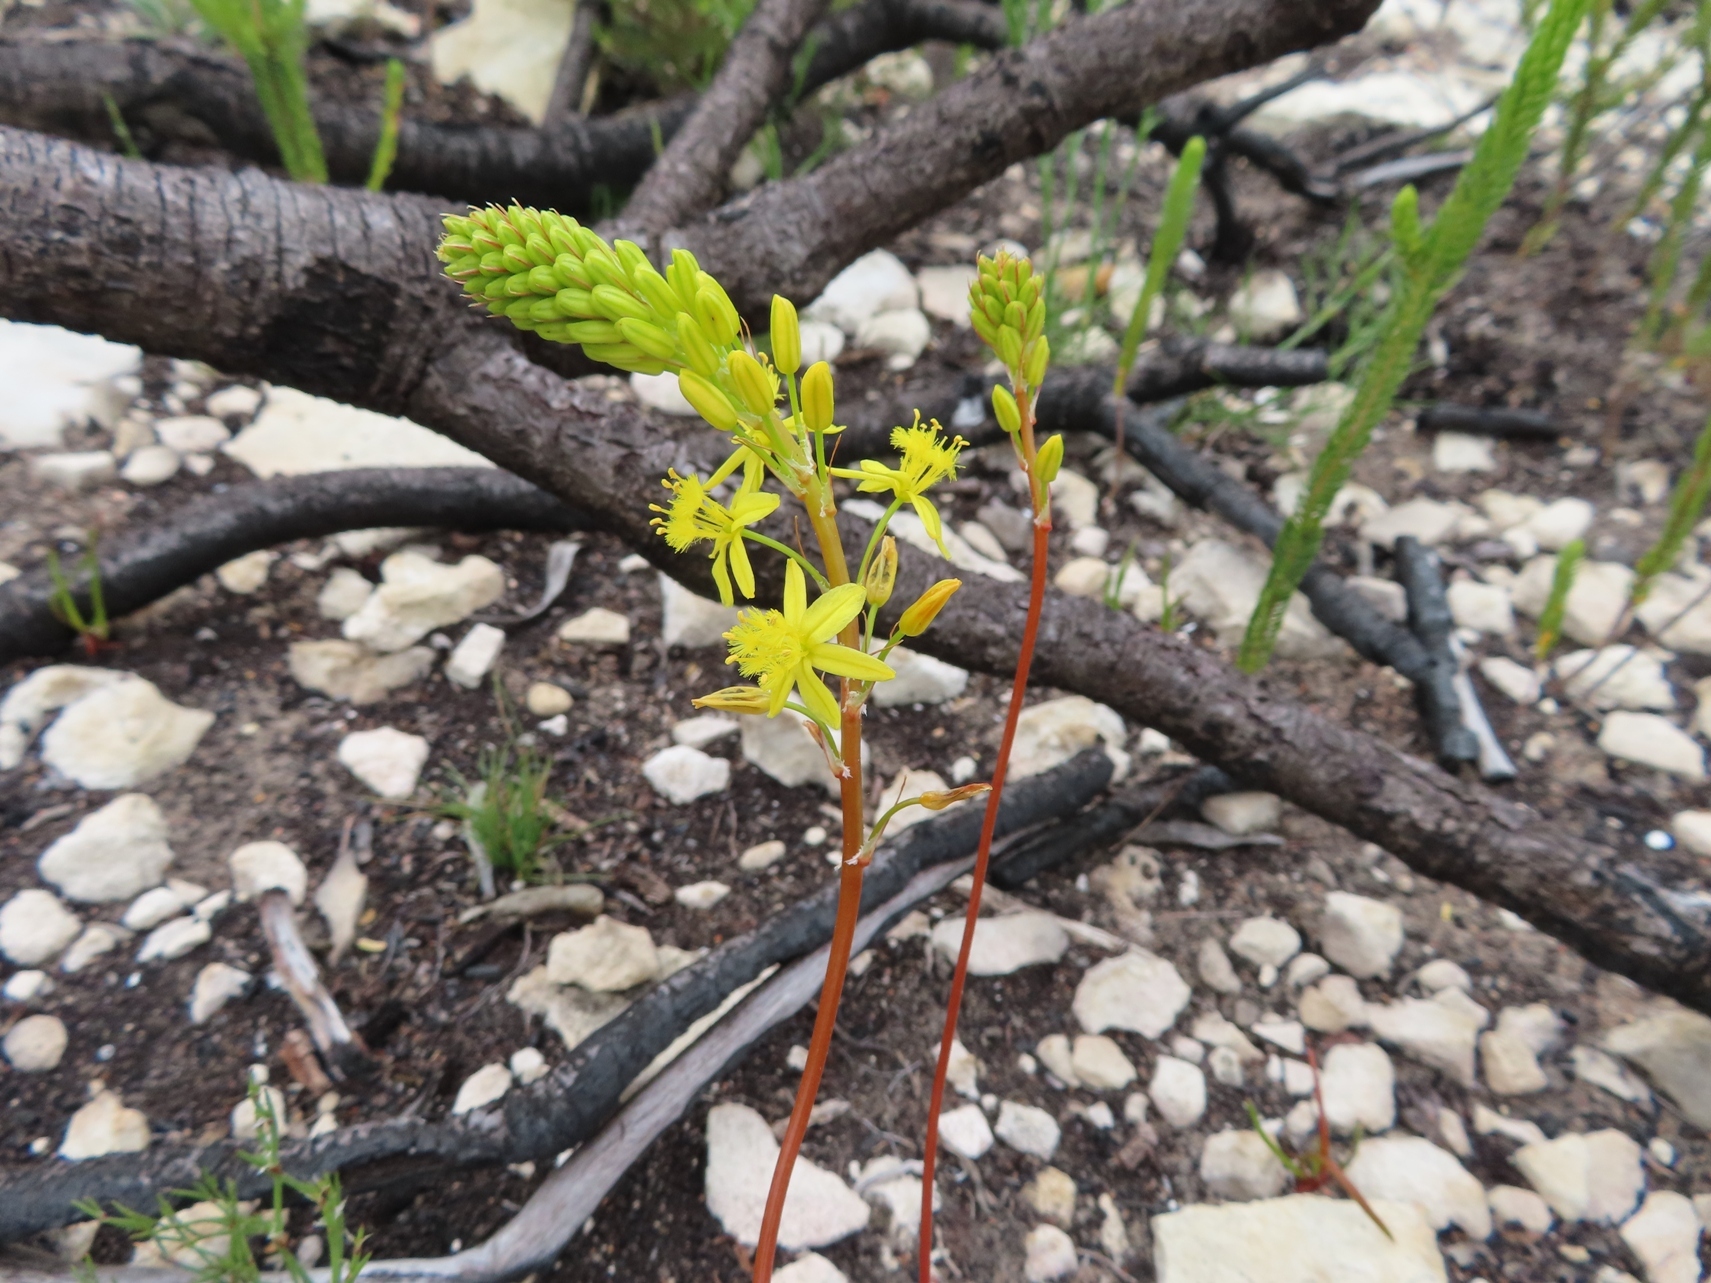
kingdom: Plantae
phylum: Tracheophyta
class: Liliopsida
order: Asparagales
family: Asphodelaceae
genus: Bulbine
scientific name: Bulbine lagopus
